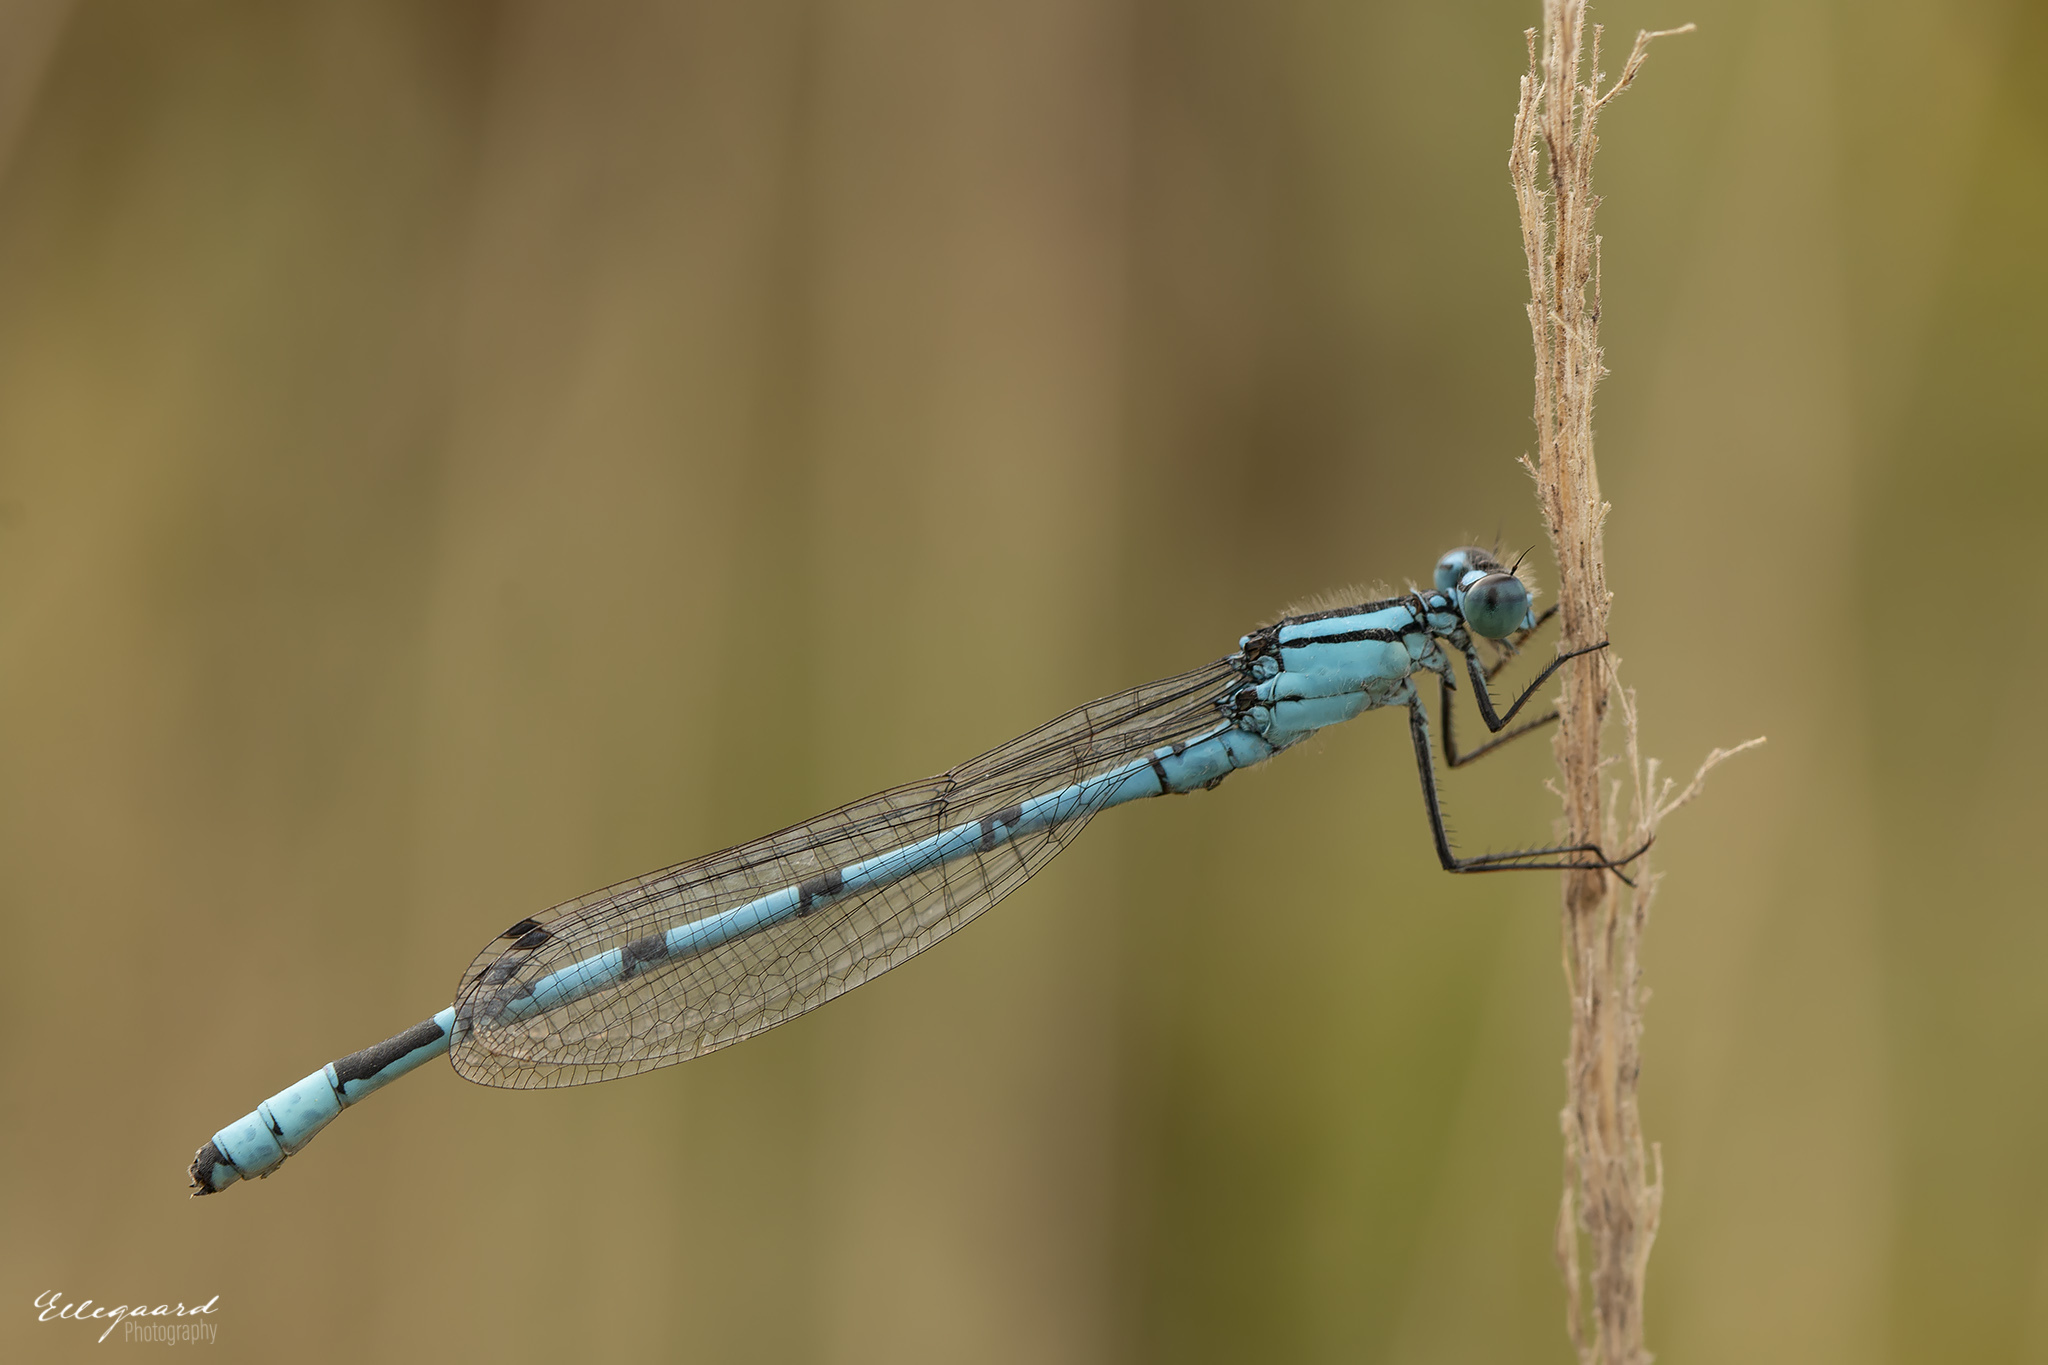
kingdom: Animalia
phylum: Arthropoda
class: Insecta
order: Odonata
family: Coenagrionidae
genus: Enallagma
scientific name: Enallagma cyathigerum
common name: Common blue damselfly
